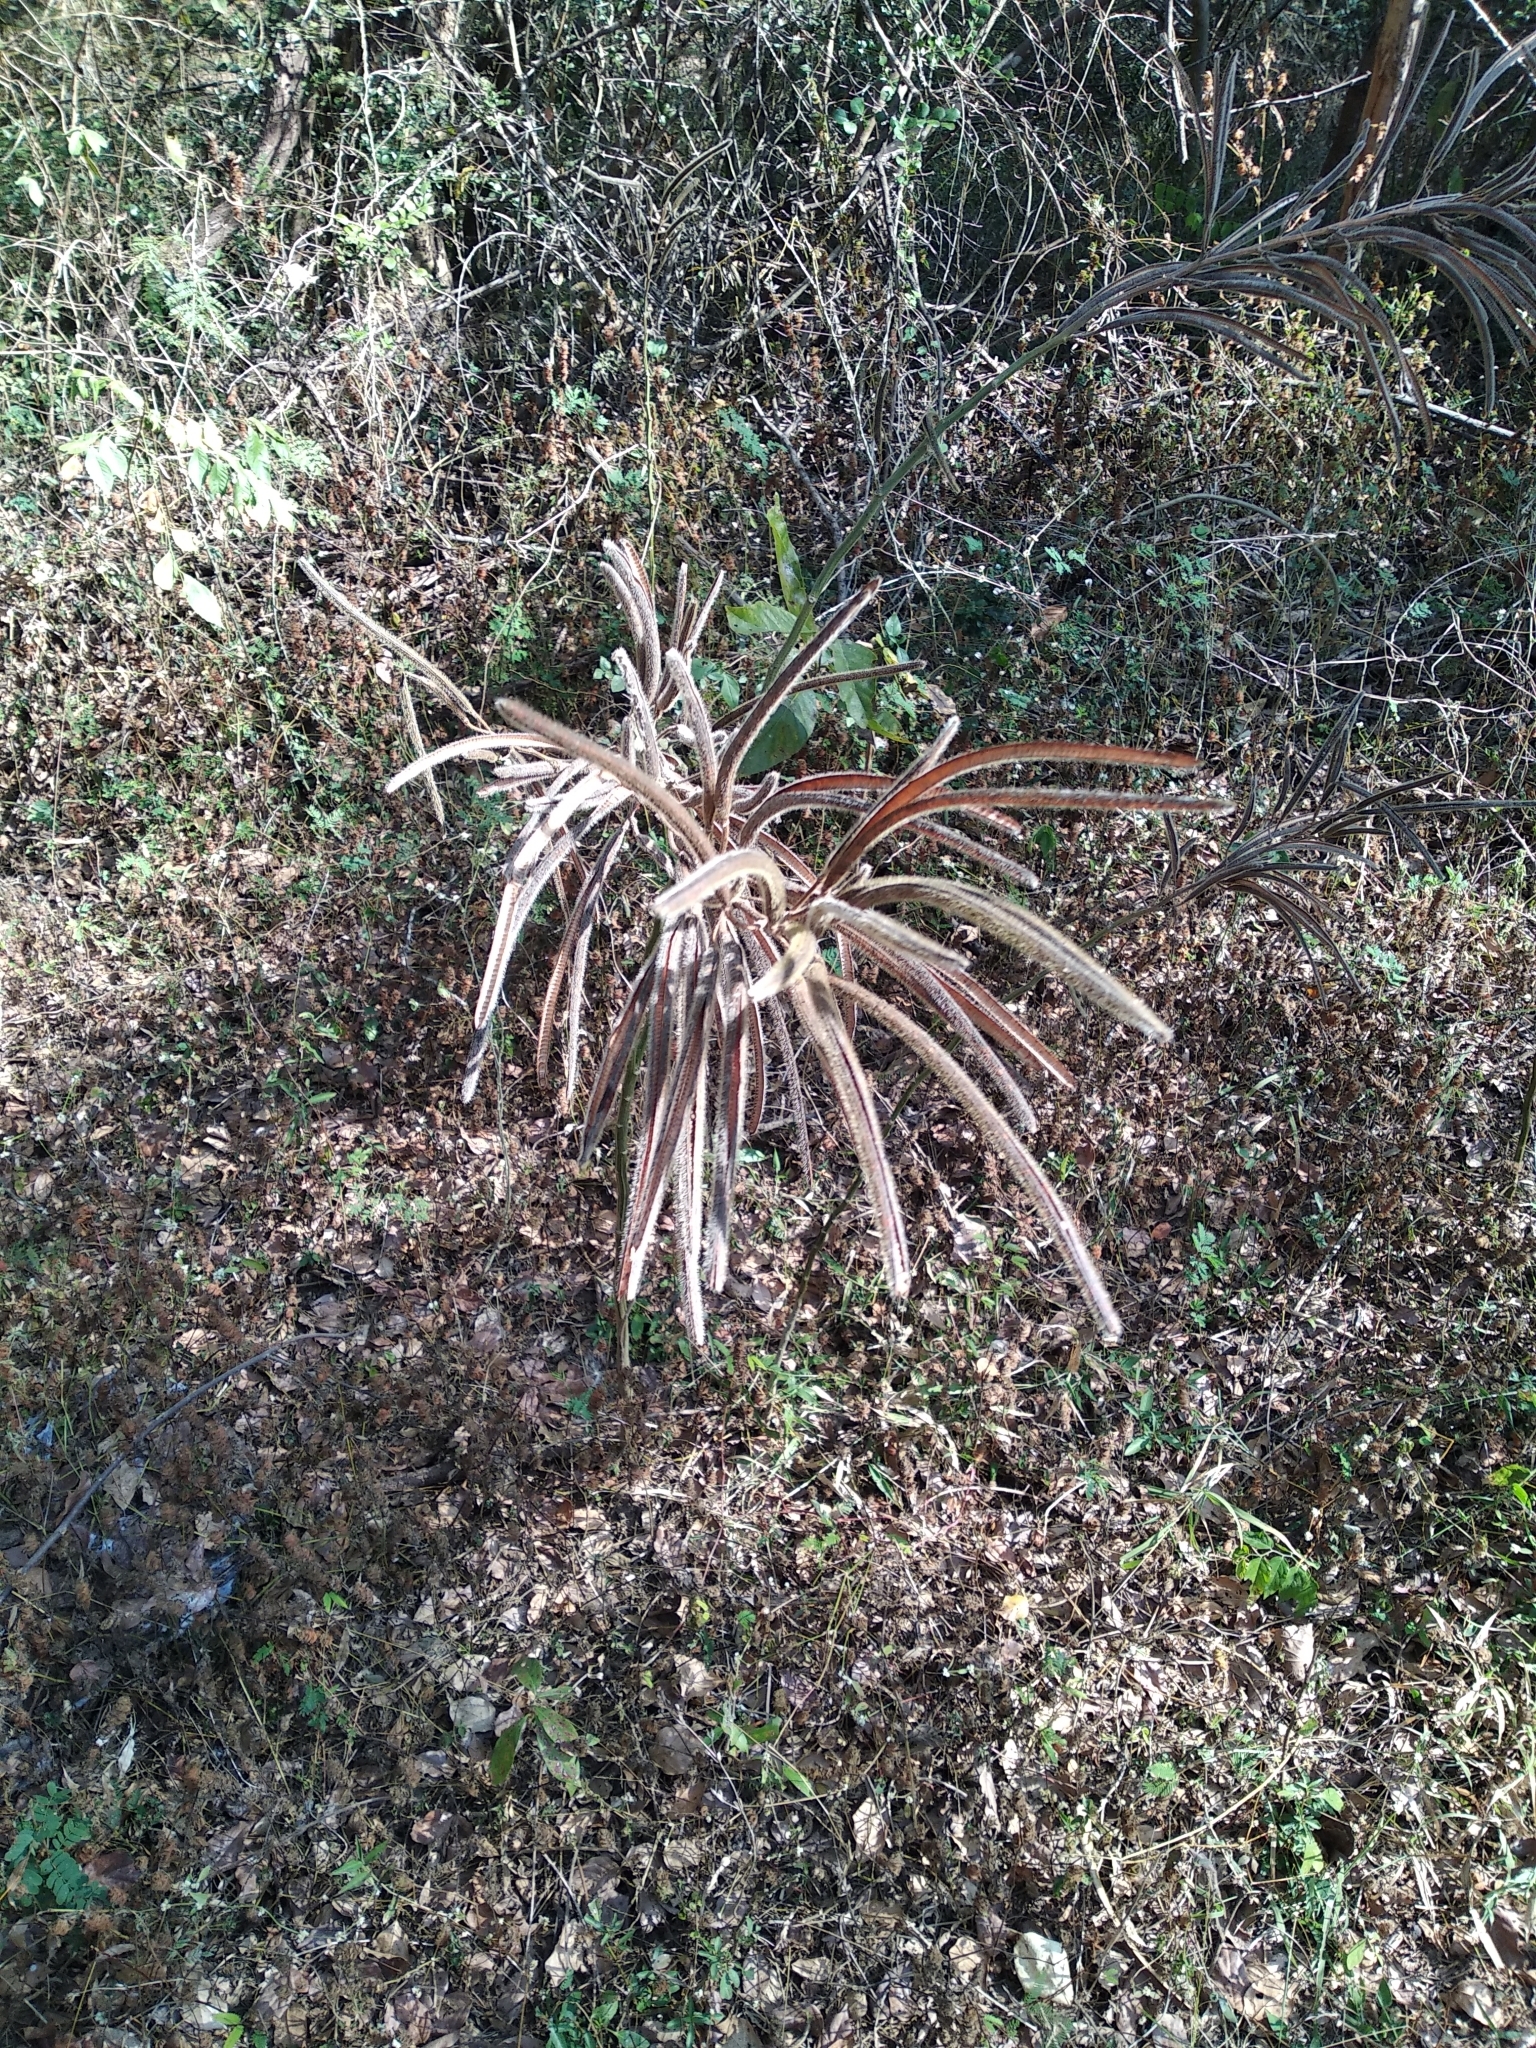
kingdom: Plantae
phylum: Tracheophyta
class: Magnoliopsida
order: Fabales
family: Fabaceae
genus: Senna
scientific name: Senna hirsuta
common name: Woolly senna
